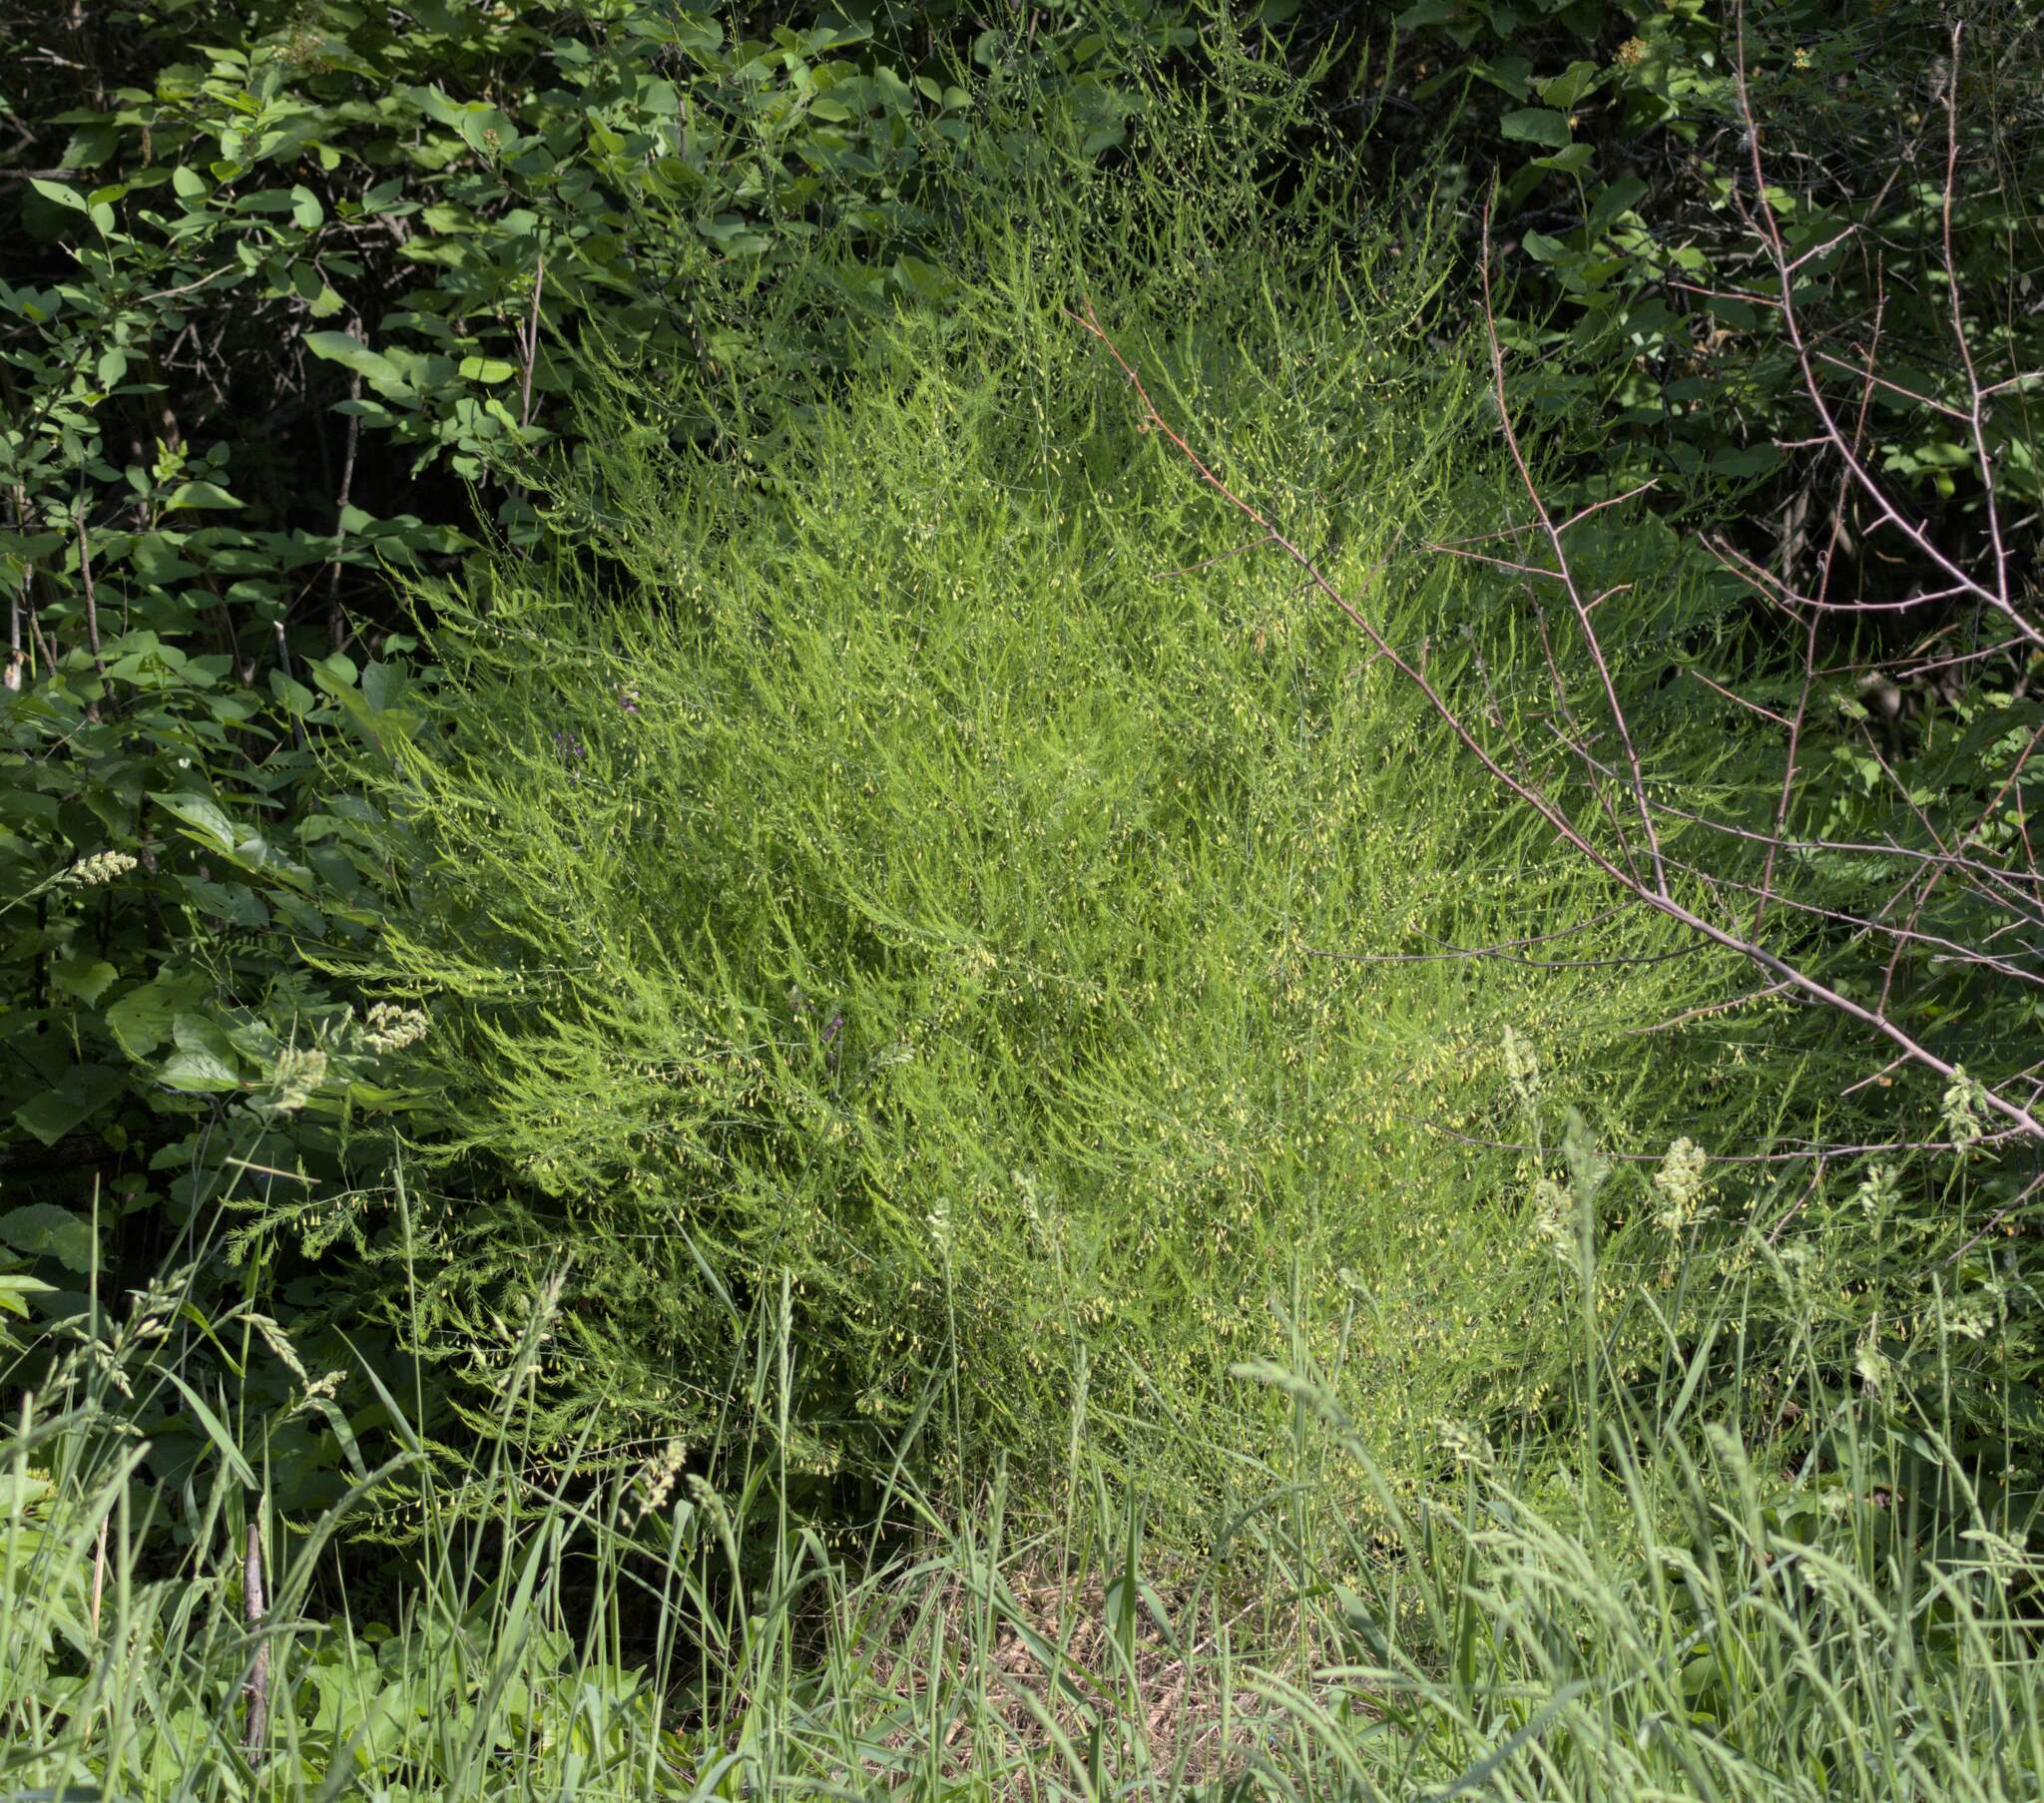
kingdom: Plantae
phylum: Tracheophyta
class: Liliopsida
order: Asparagales
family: Asparagaceae
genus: Asparagus
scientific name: Asparagus officinalis
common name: Garden asparagus
